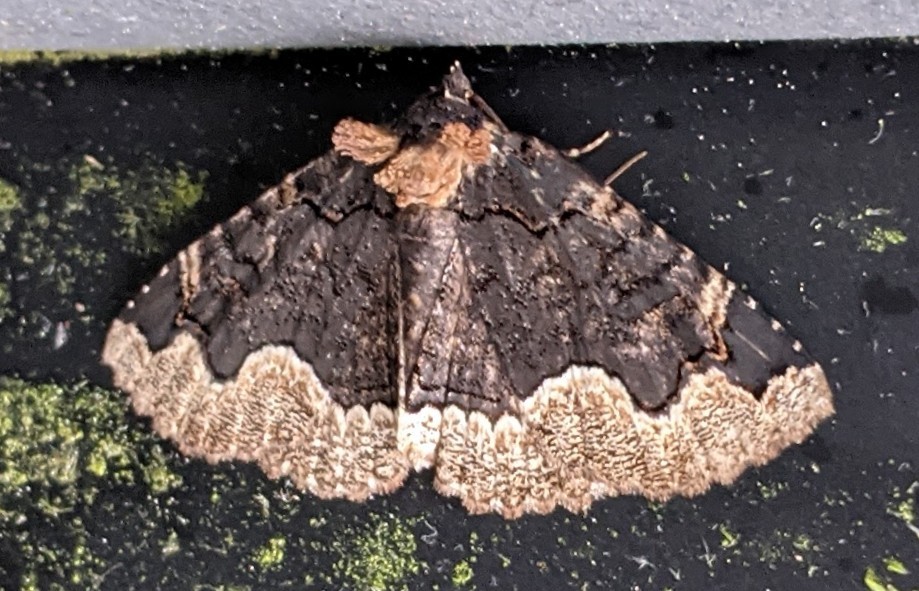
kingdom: Animalia
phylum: Arthropoda
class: Insecta
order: Lepidoptera
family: Erebidae
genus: Zale
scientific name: Zale horrida
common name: Horrid zale moth
